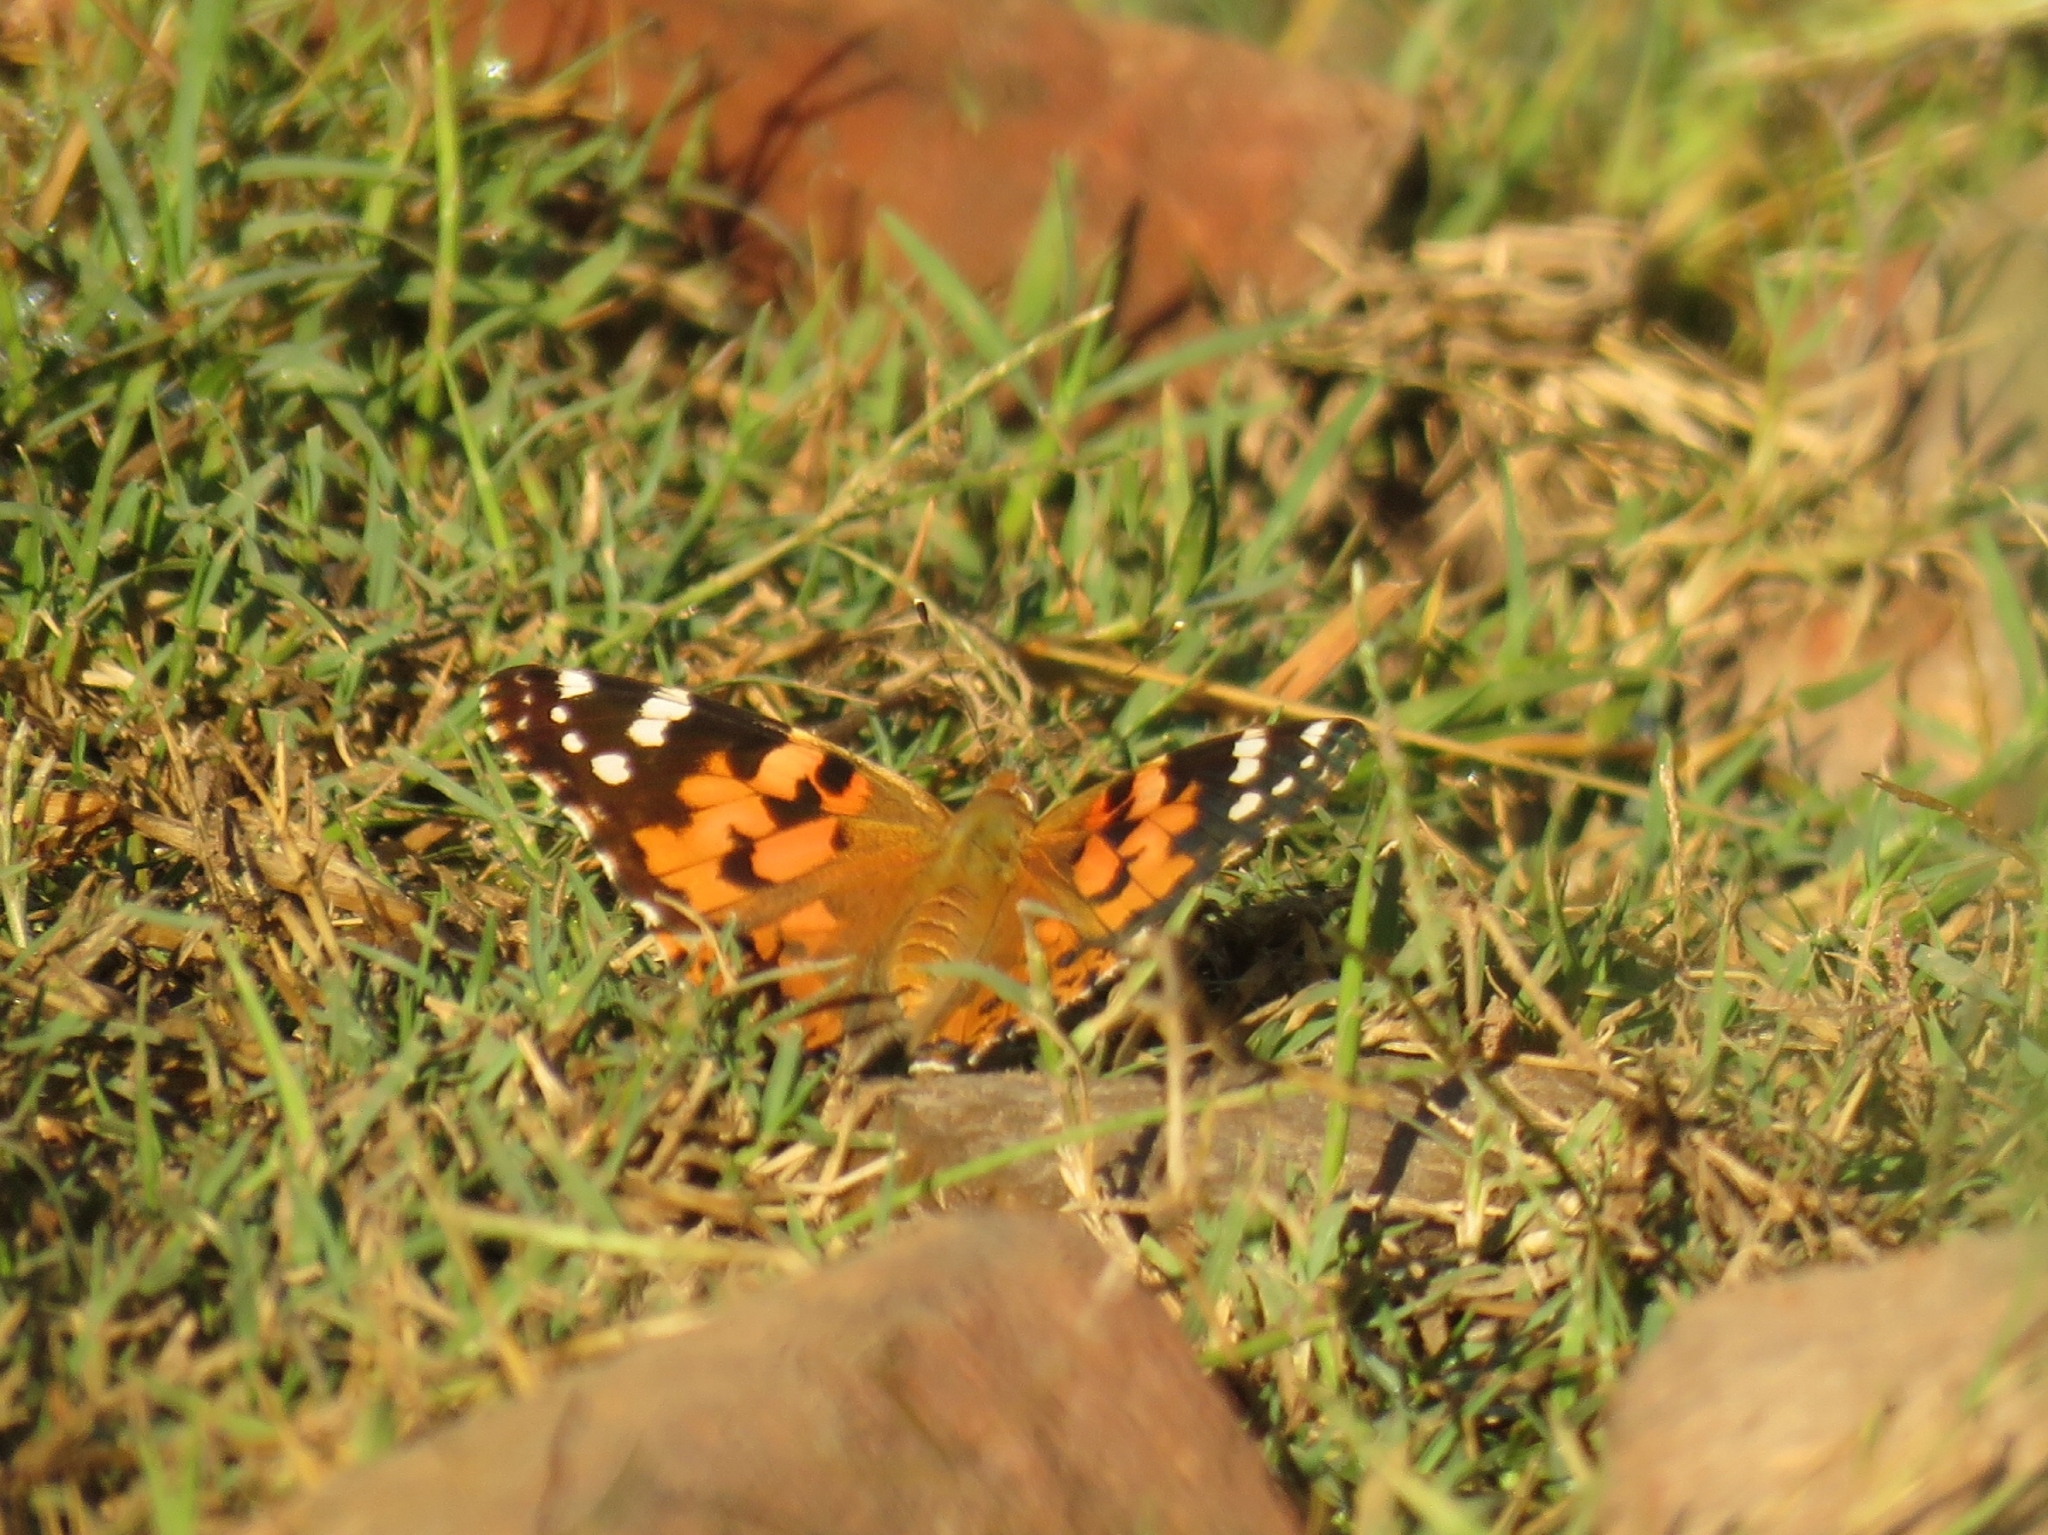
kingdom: Animalia
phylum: Arthropoda
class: Insecta
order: Lepidoptera
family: Nymphalidae
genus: Vanessa
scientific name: Vanessa cardui
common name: Painted lady
